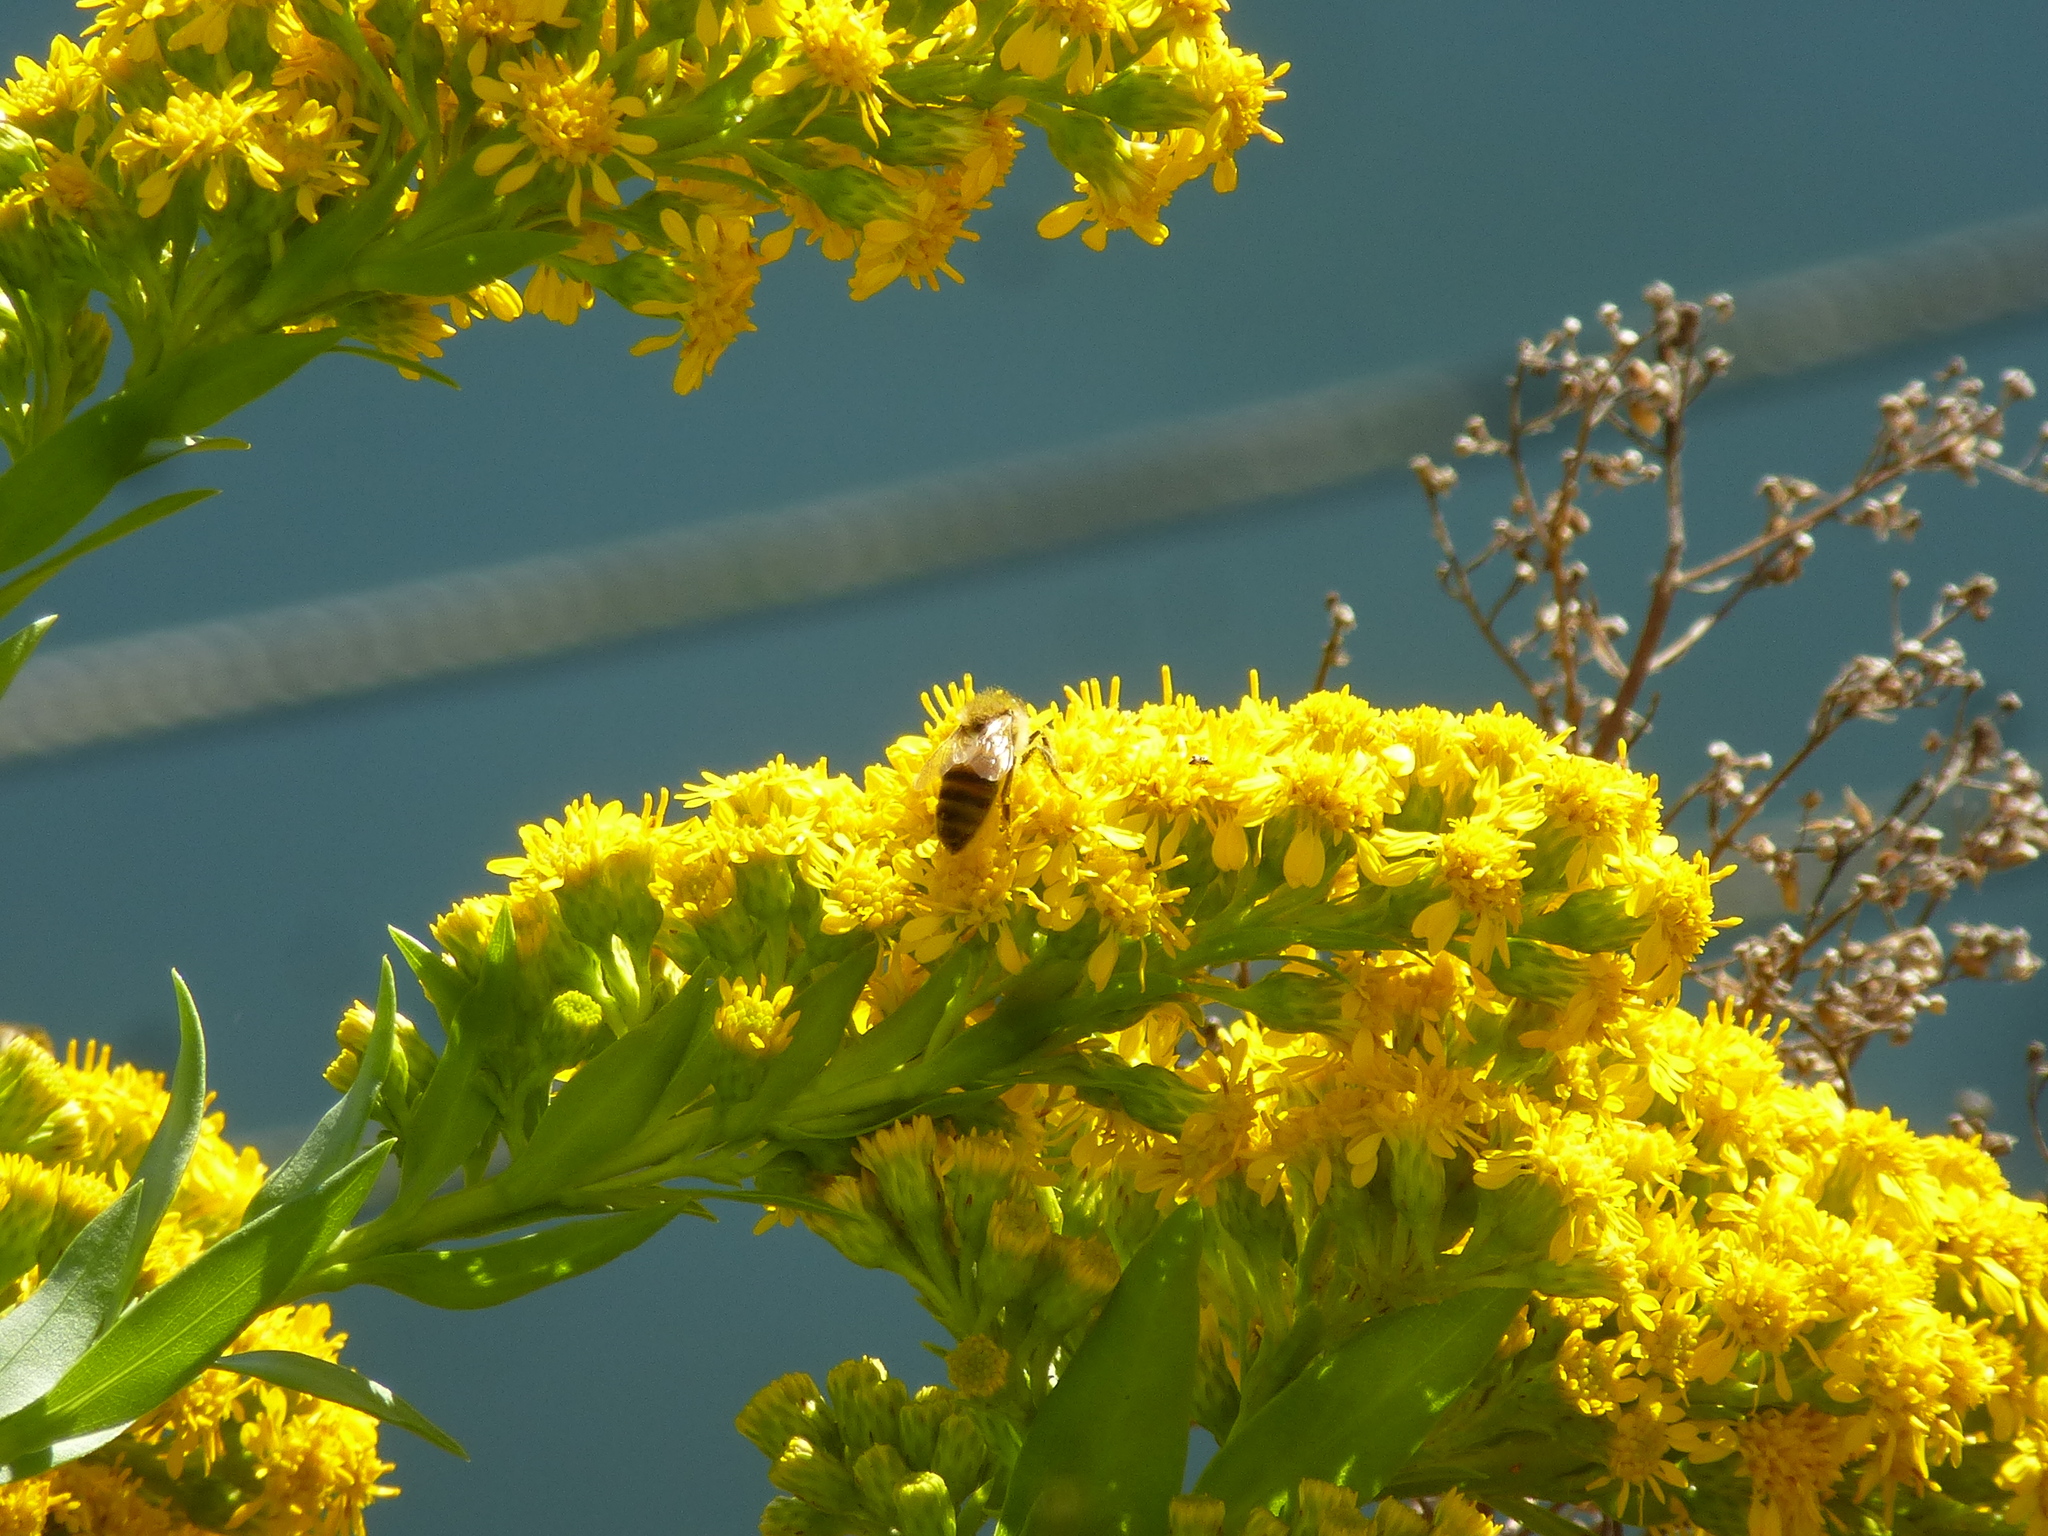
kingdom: Animalia
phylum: Arthropoda
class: Insecta
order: Hymenoptera
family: Apidae
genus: Apis
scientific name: Apis mellifera
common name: Honey bee
